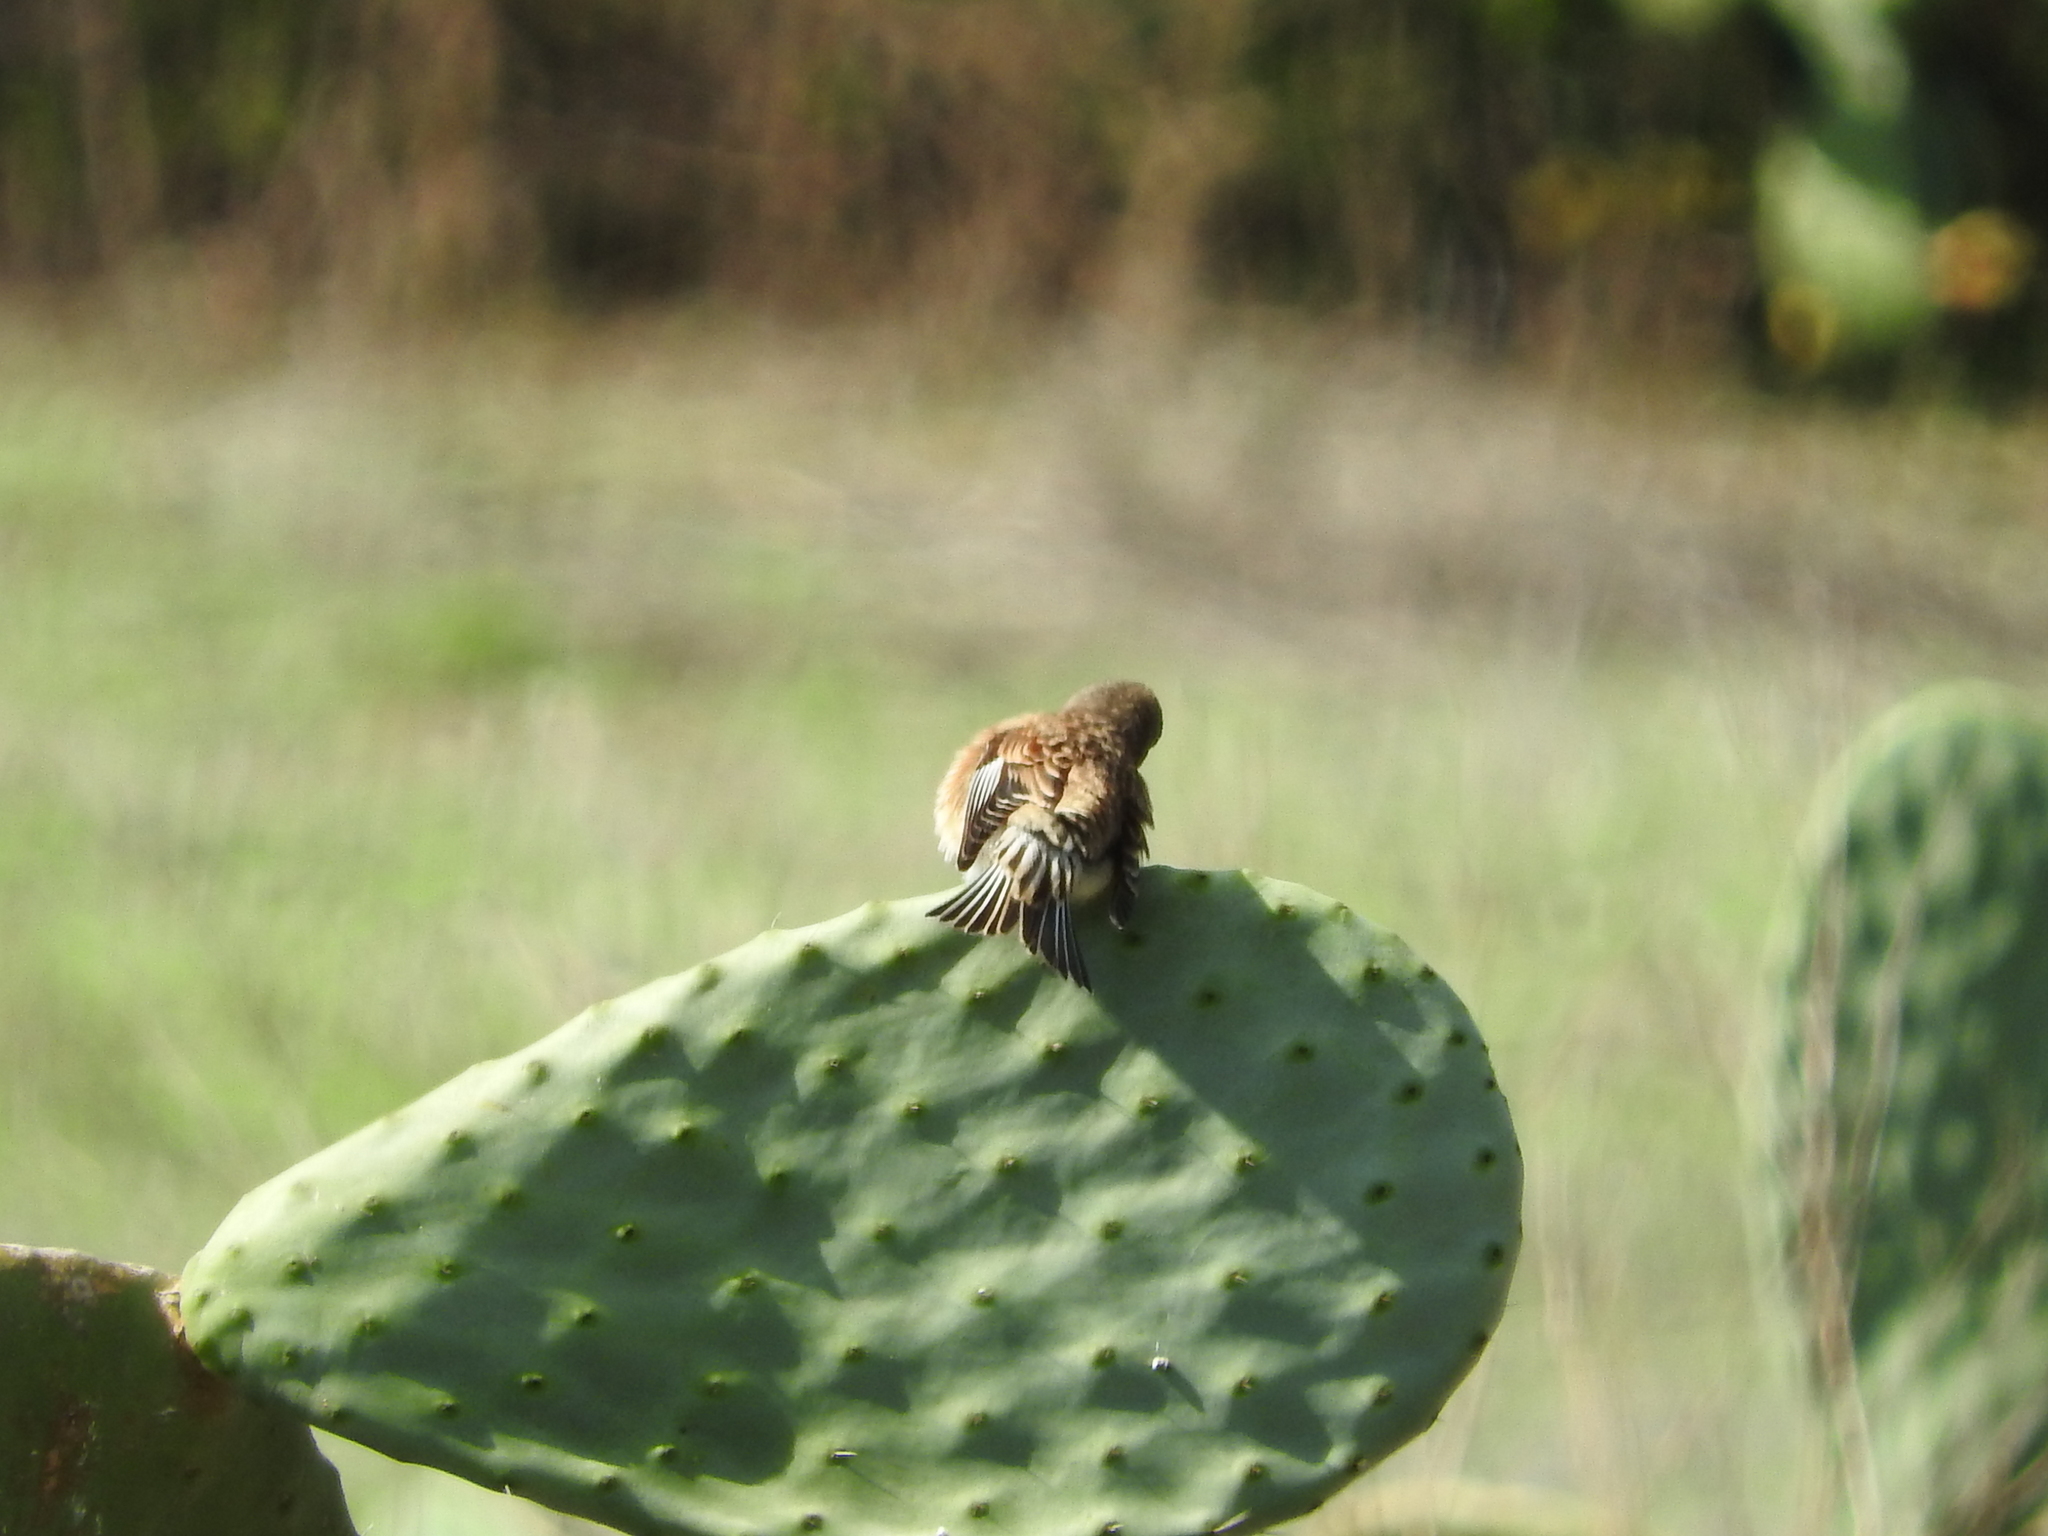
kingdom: Animalia
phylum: Chordata
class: Aves
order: Passeriformes
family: Fringillidae
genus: Linaria
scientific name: Linaria cannabina
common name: Common linnet
